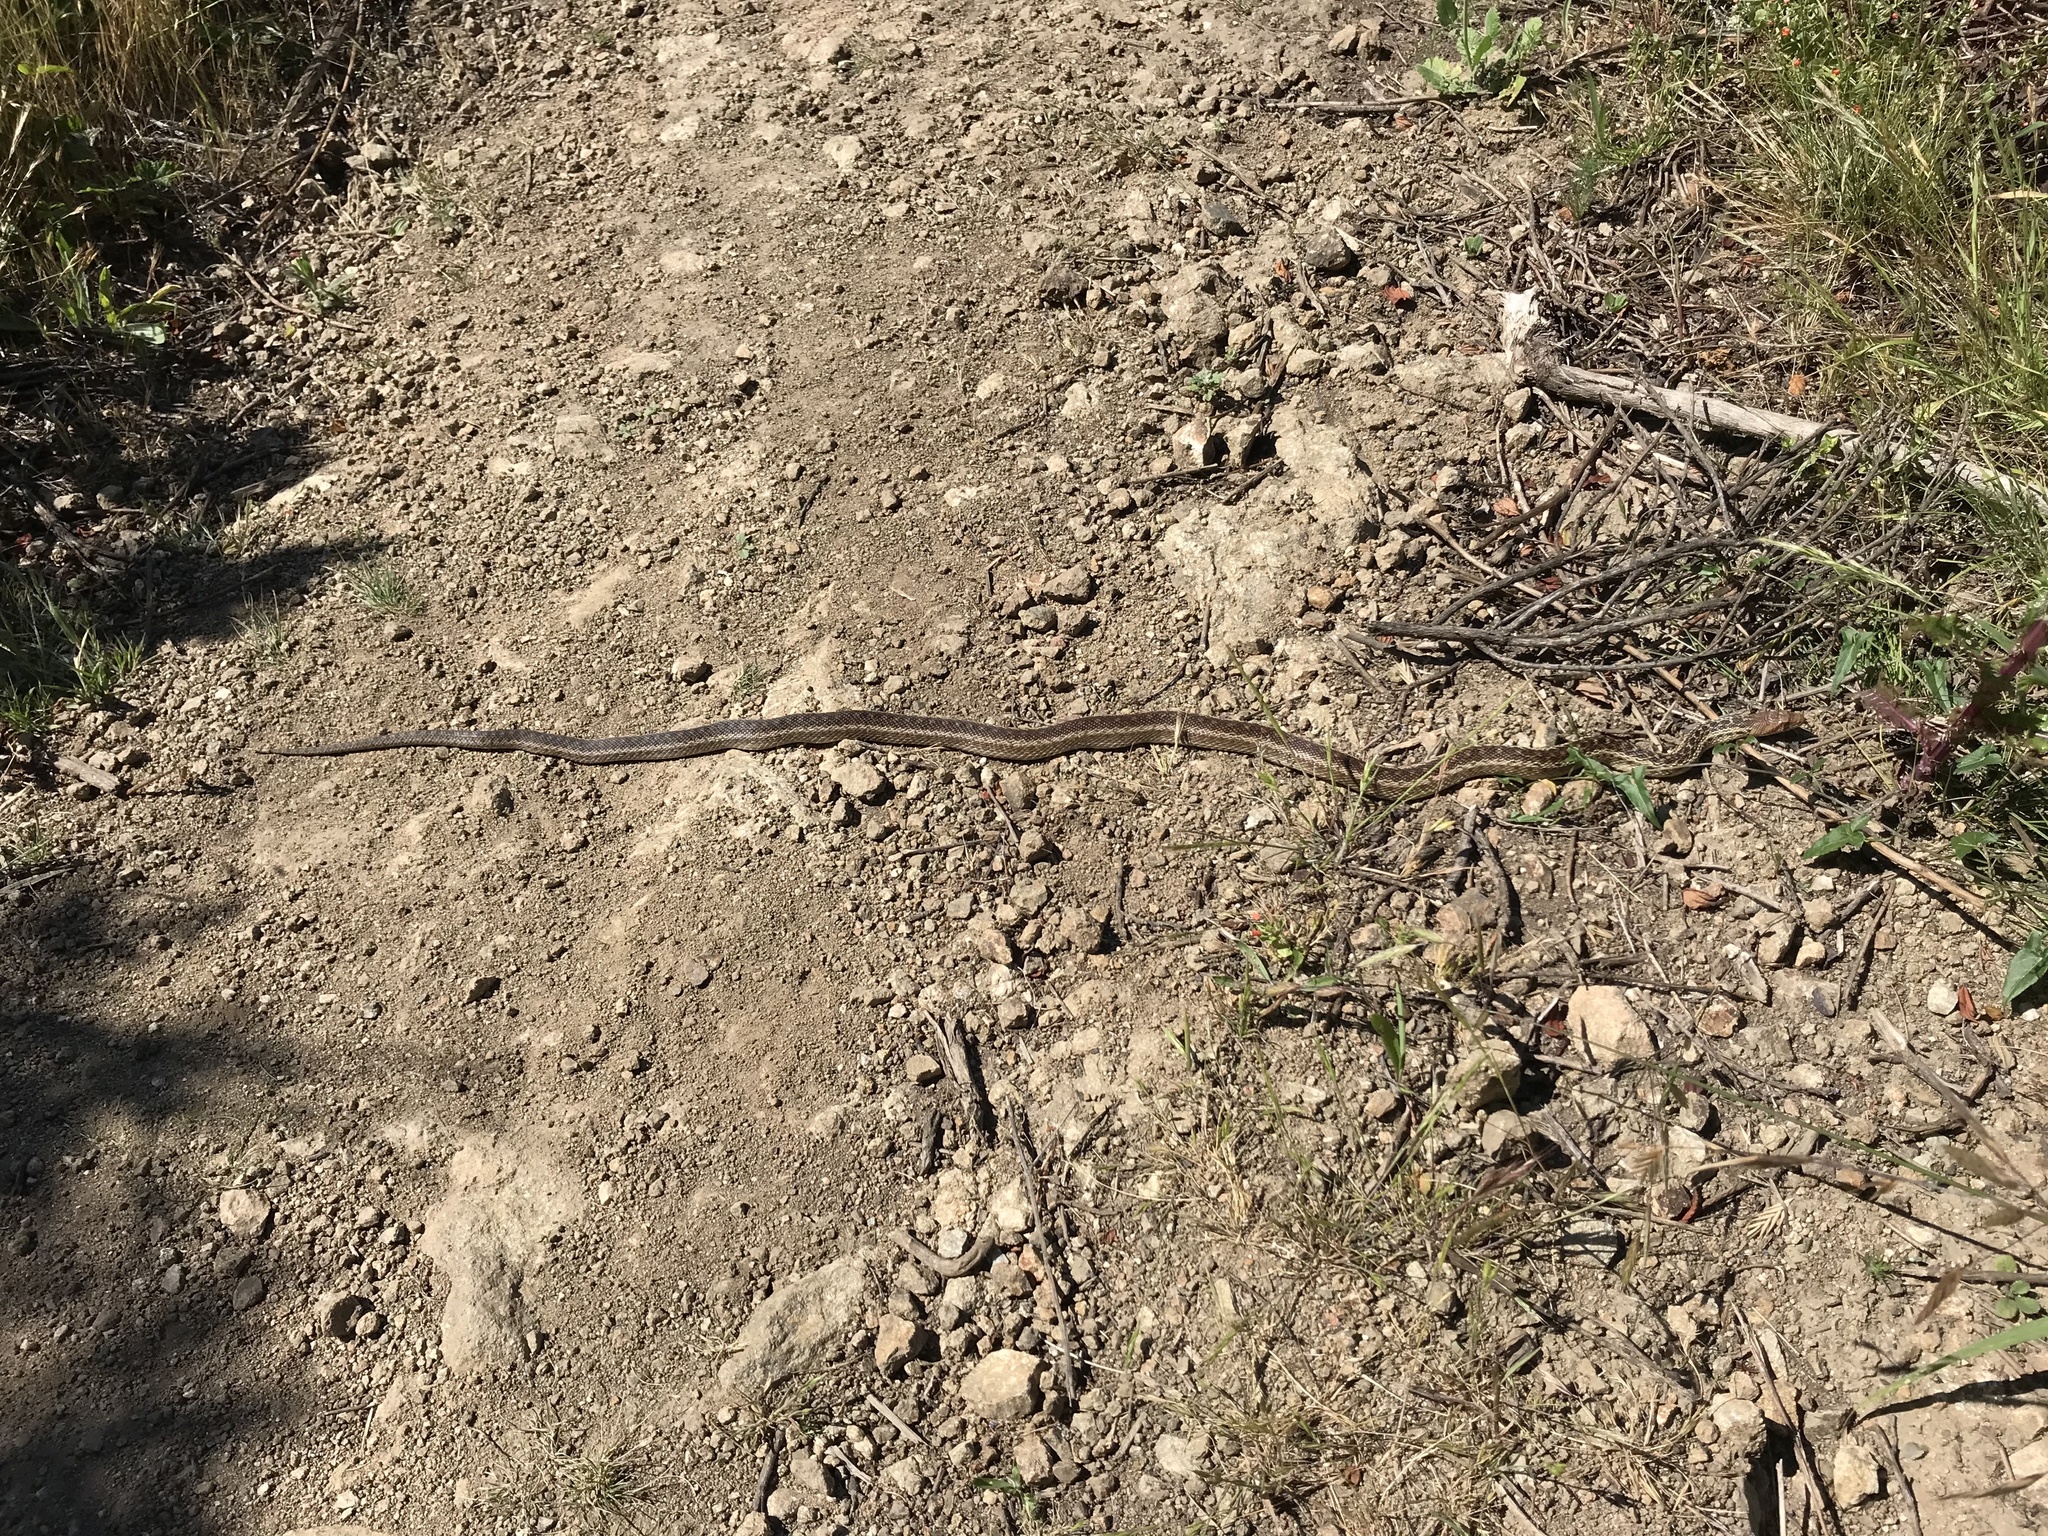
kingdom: Animalia
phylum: Chordata
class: Squamata
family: Colubridae
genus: Pituophis
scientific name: Pituophis catenifer
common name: Gopher snake
